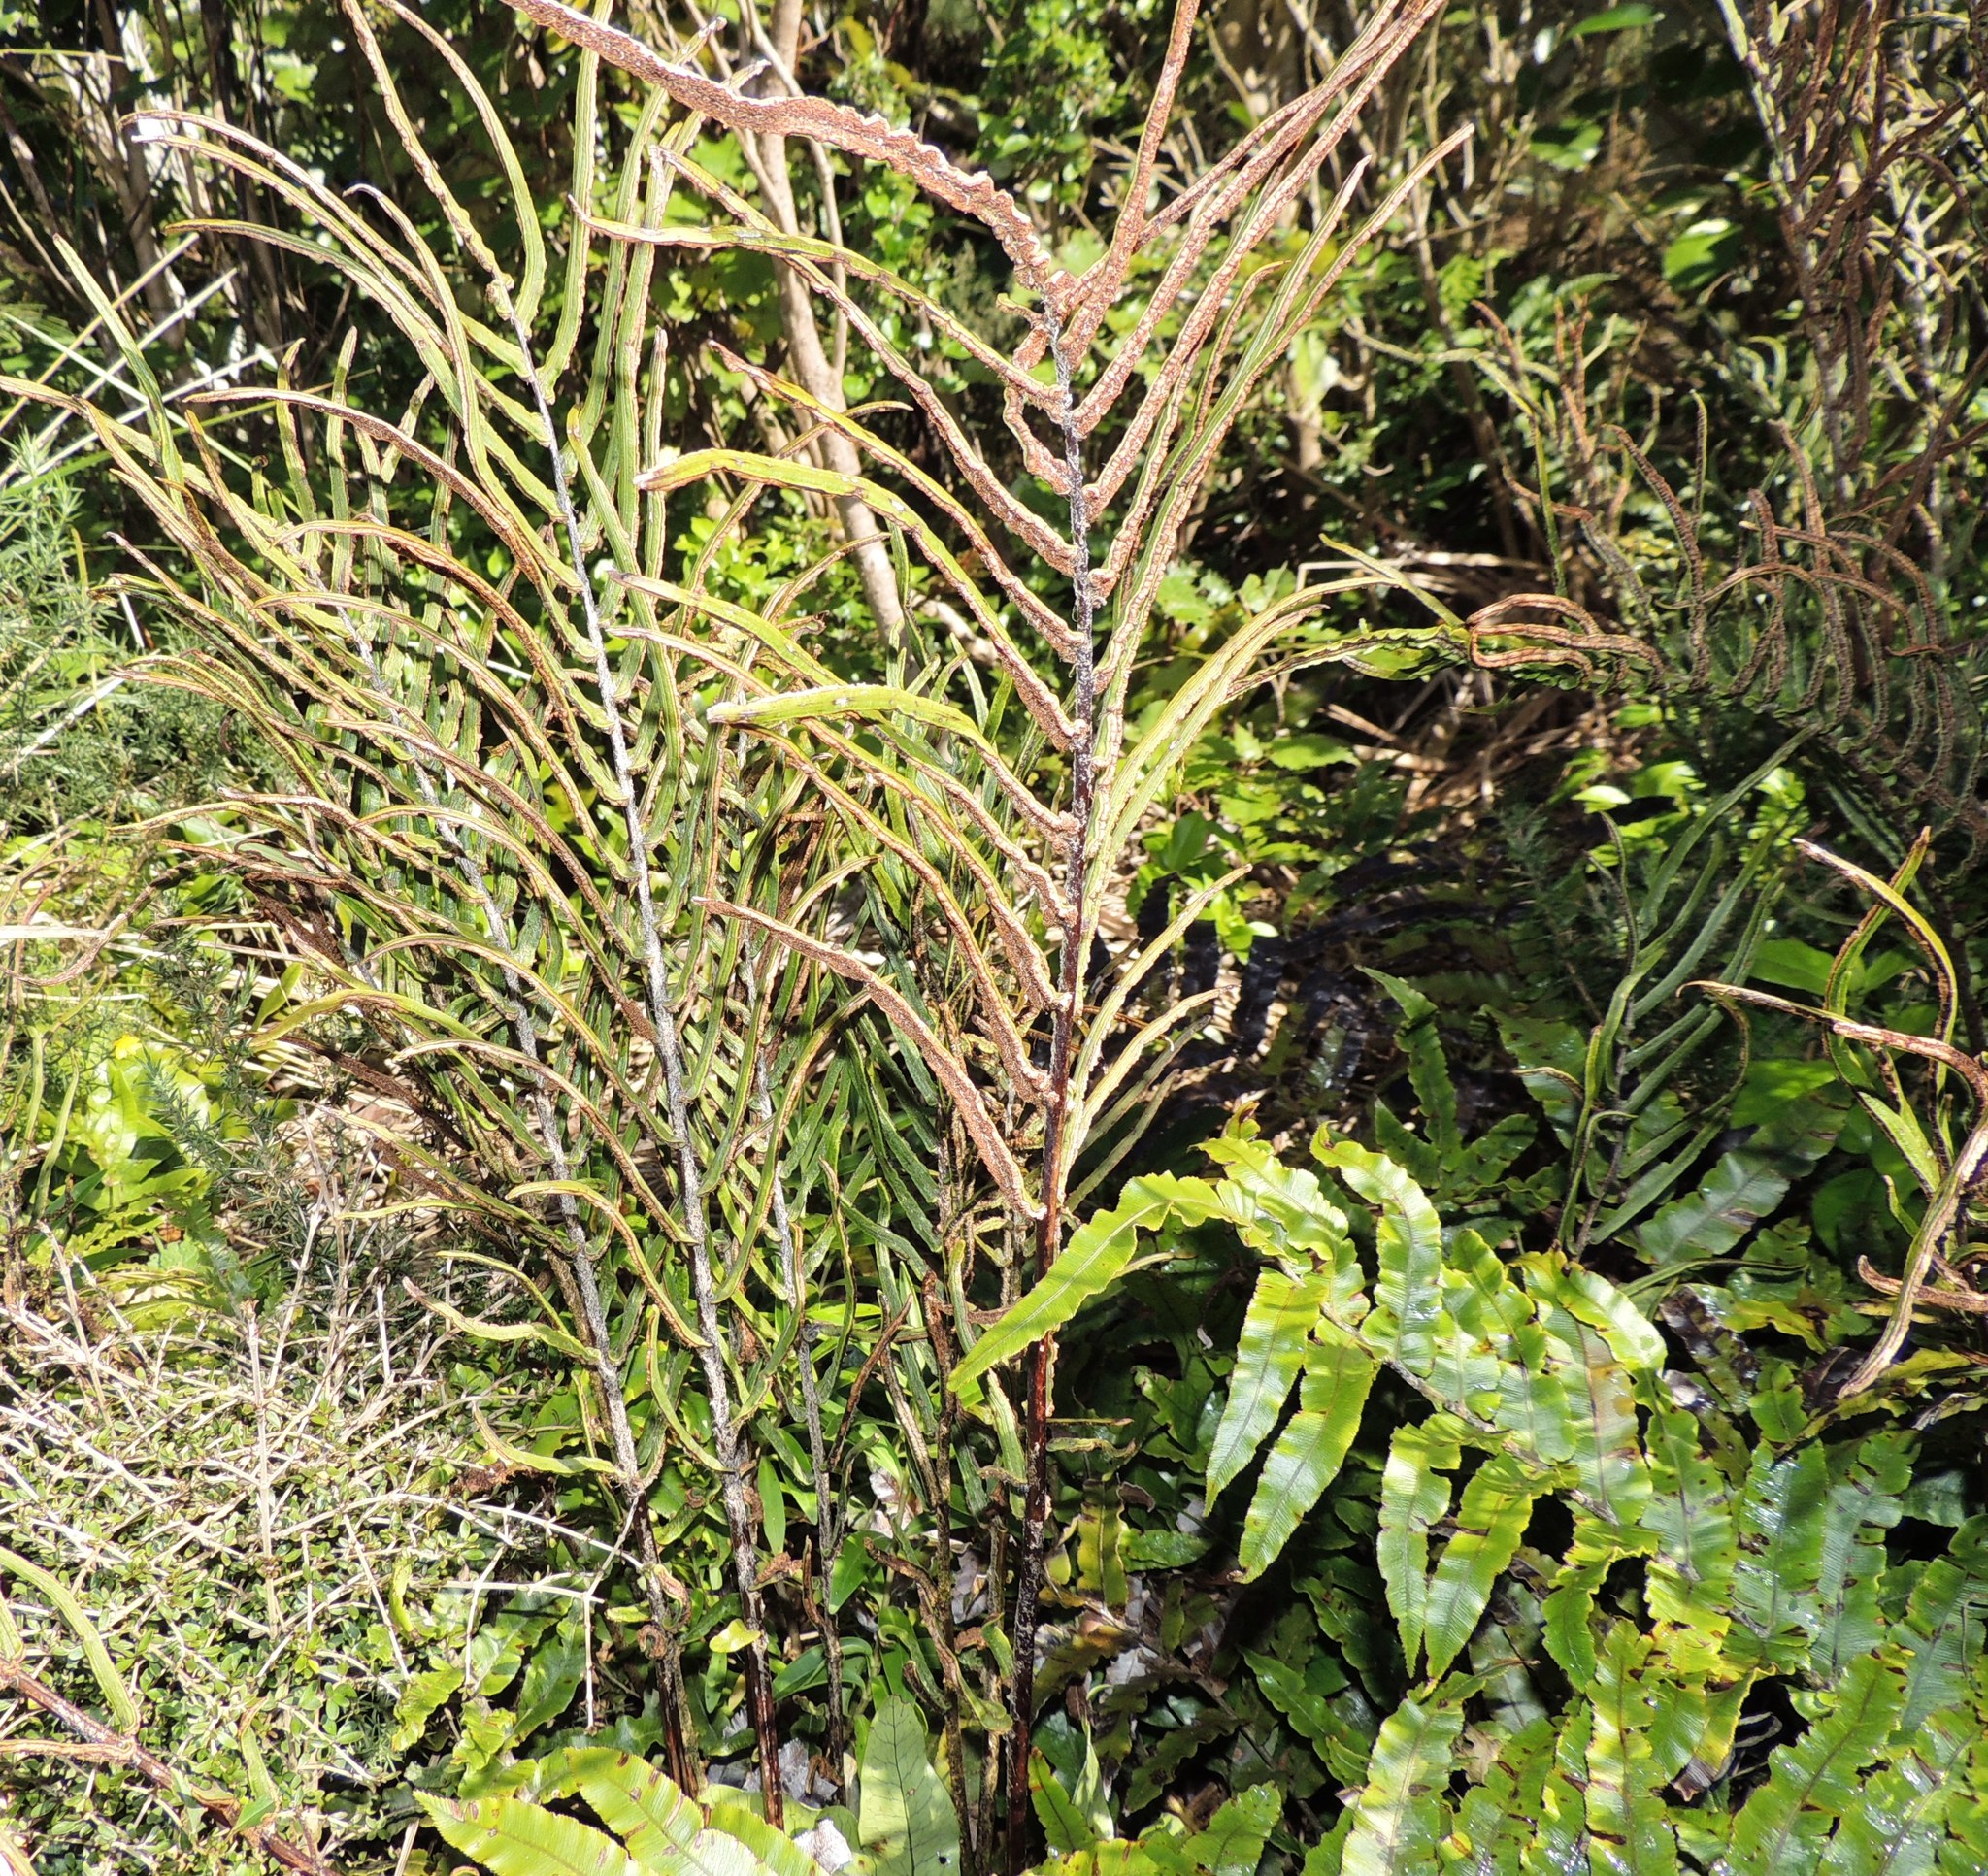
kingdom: Plantae
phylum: Tracheophyta
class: Polypodiopsida
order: Polypodiales
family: Blechnaceae
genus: Parablechnum
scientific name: Parablechnum procerum
